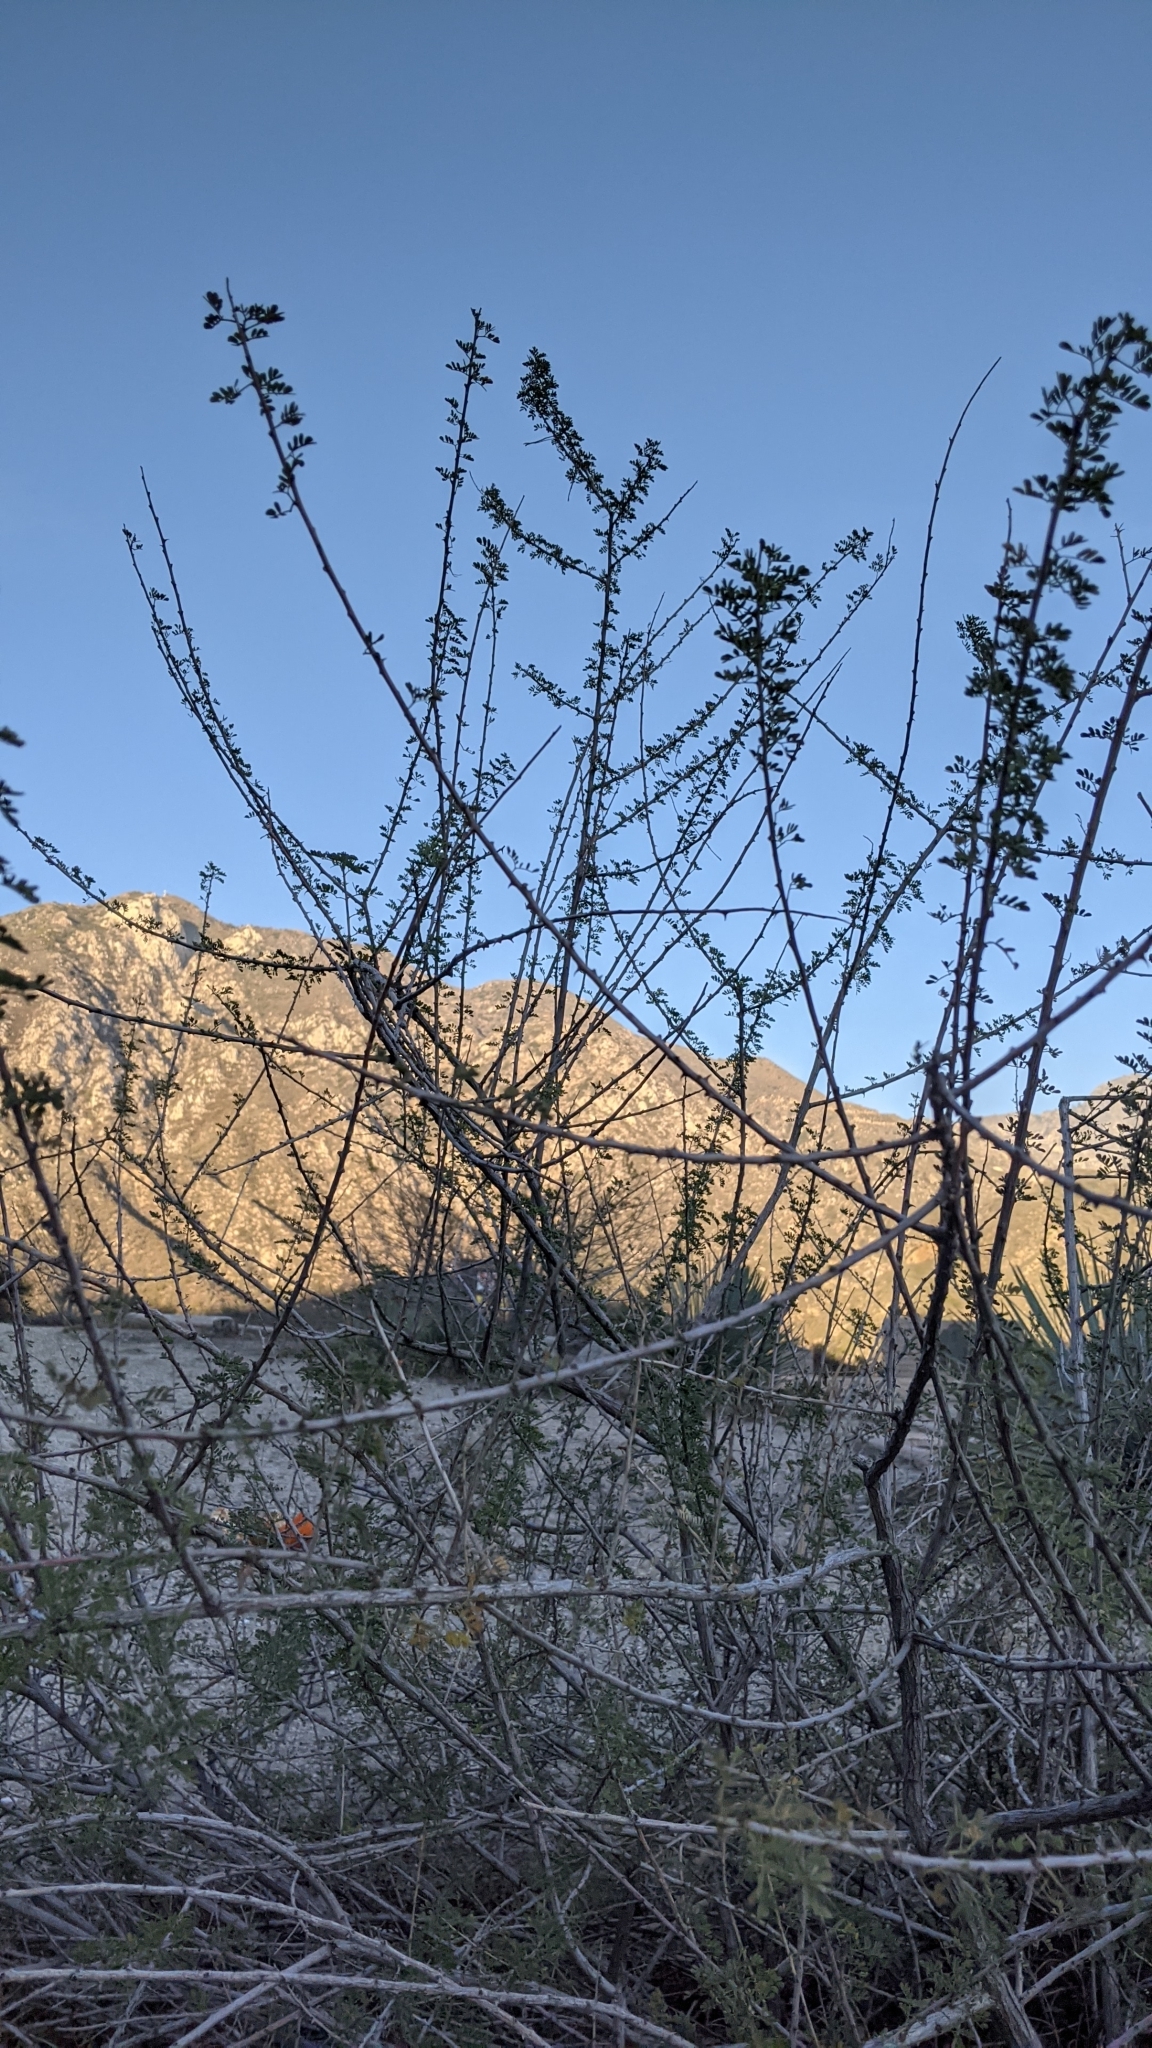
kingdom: Plantae
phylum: Tracheophyta
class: Magnoliopsida
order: Fabales
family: Fabaceae
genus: Senegalia
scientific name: Senegalia greggii
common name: Texas-mimosa
